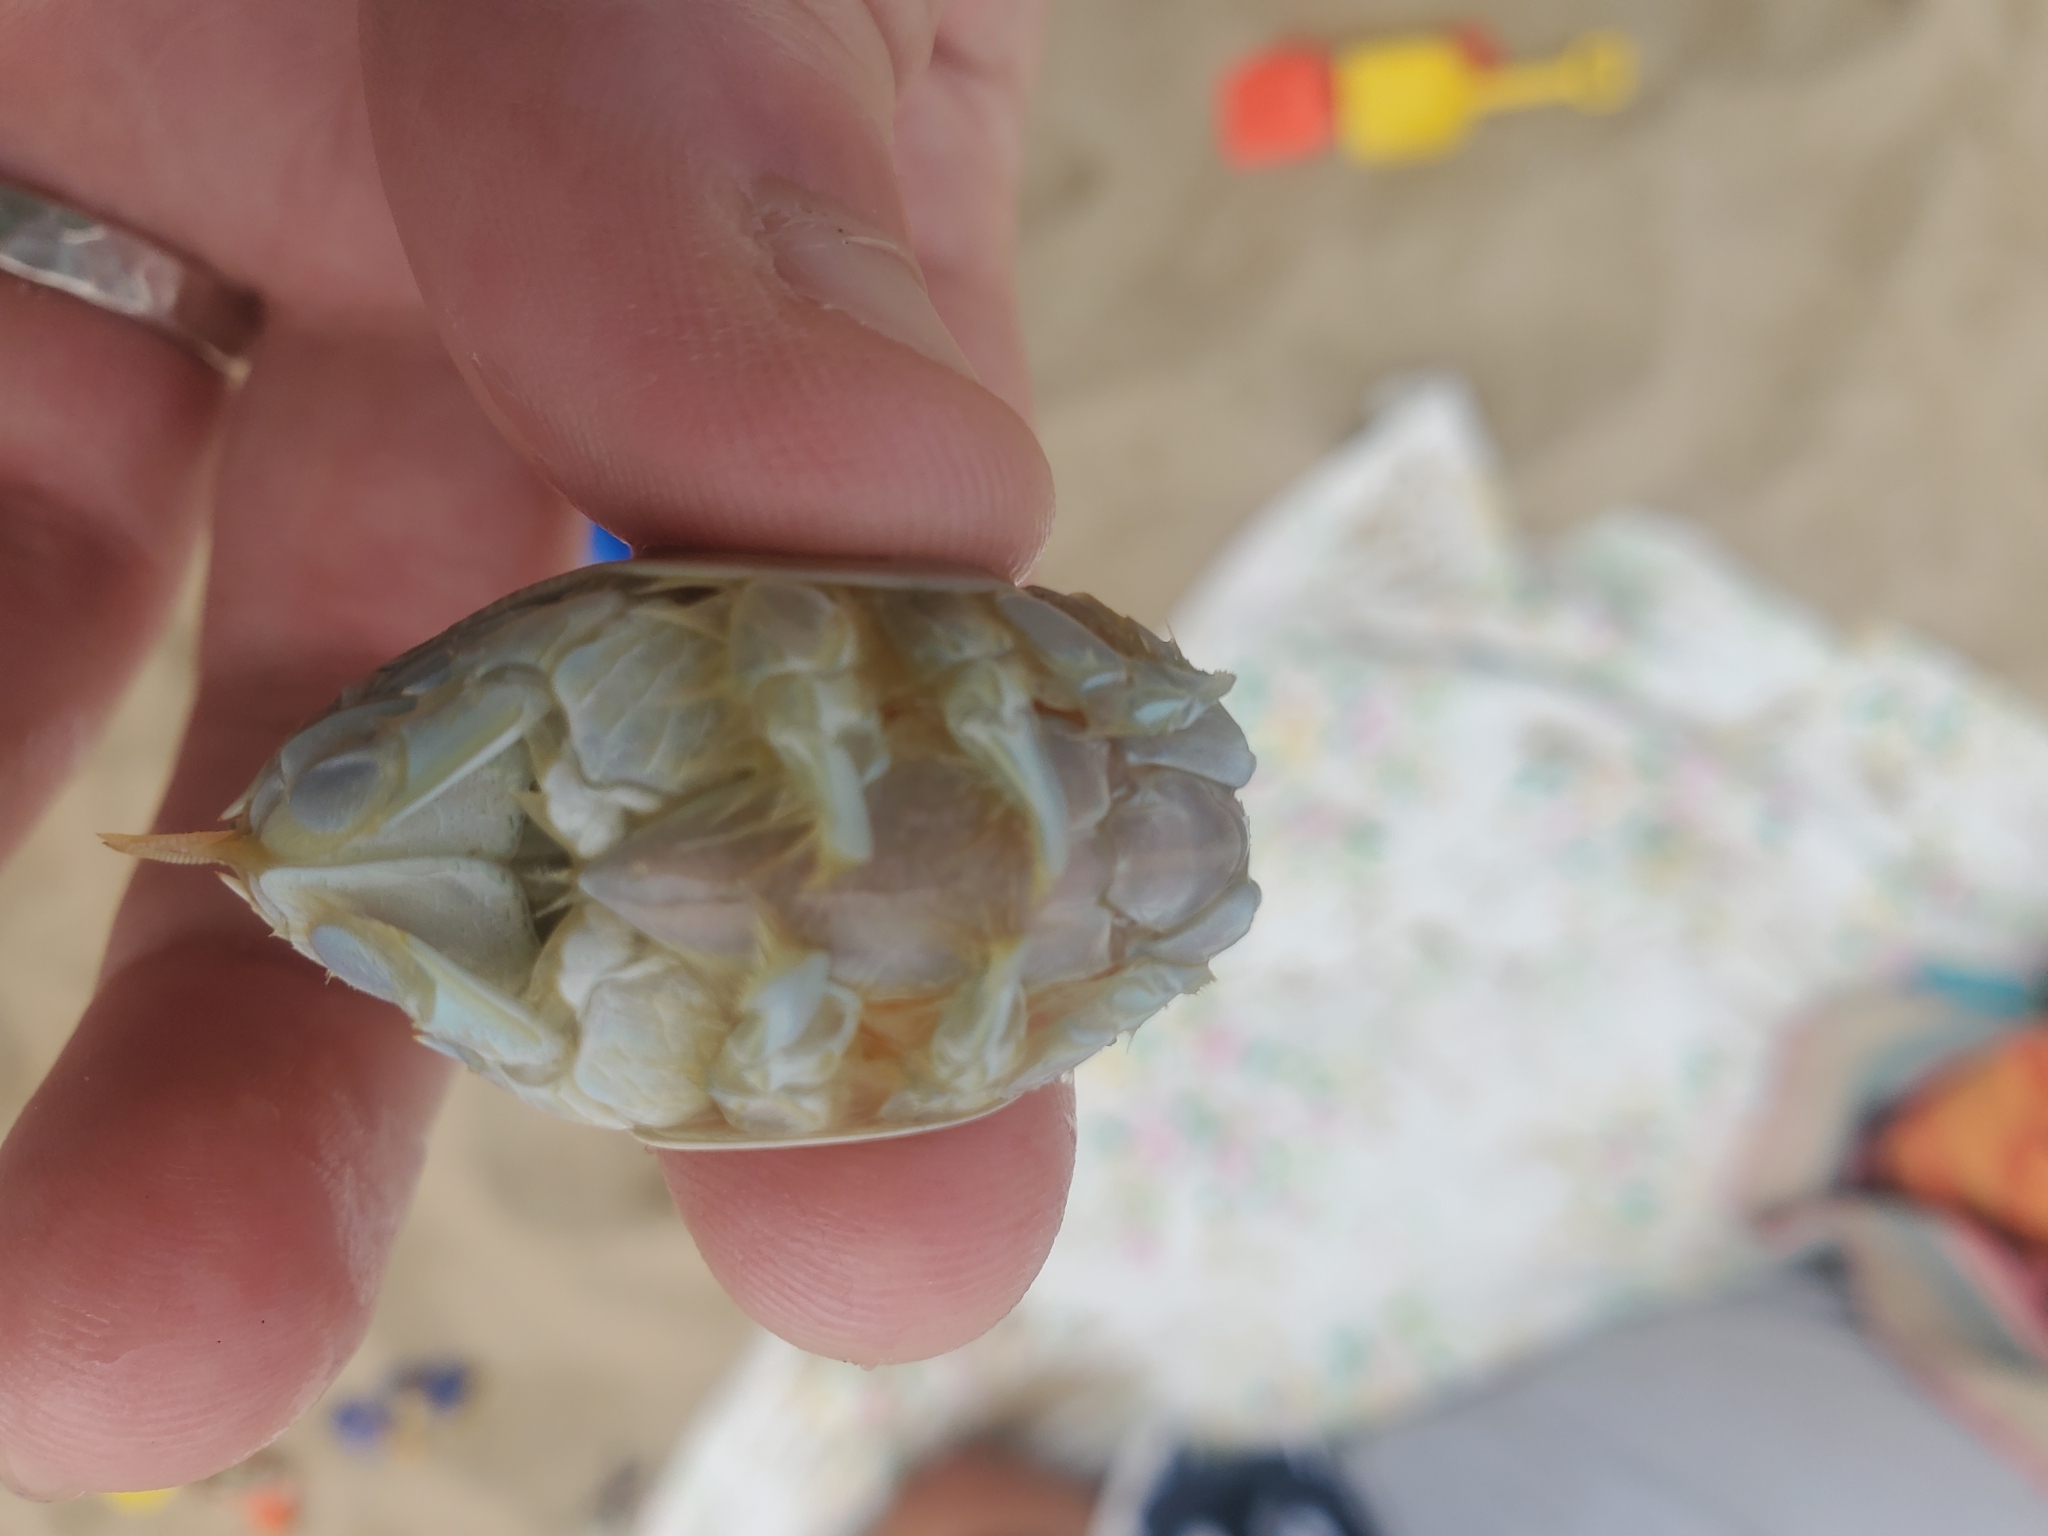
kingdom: Animalia
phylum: Arthropoda
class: Malacostraca
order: Decapoda
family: Hippidae
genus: Emerita
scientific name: Emerita talpoida
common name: Atlantic sand crab
